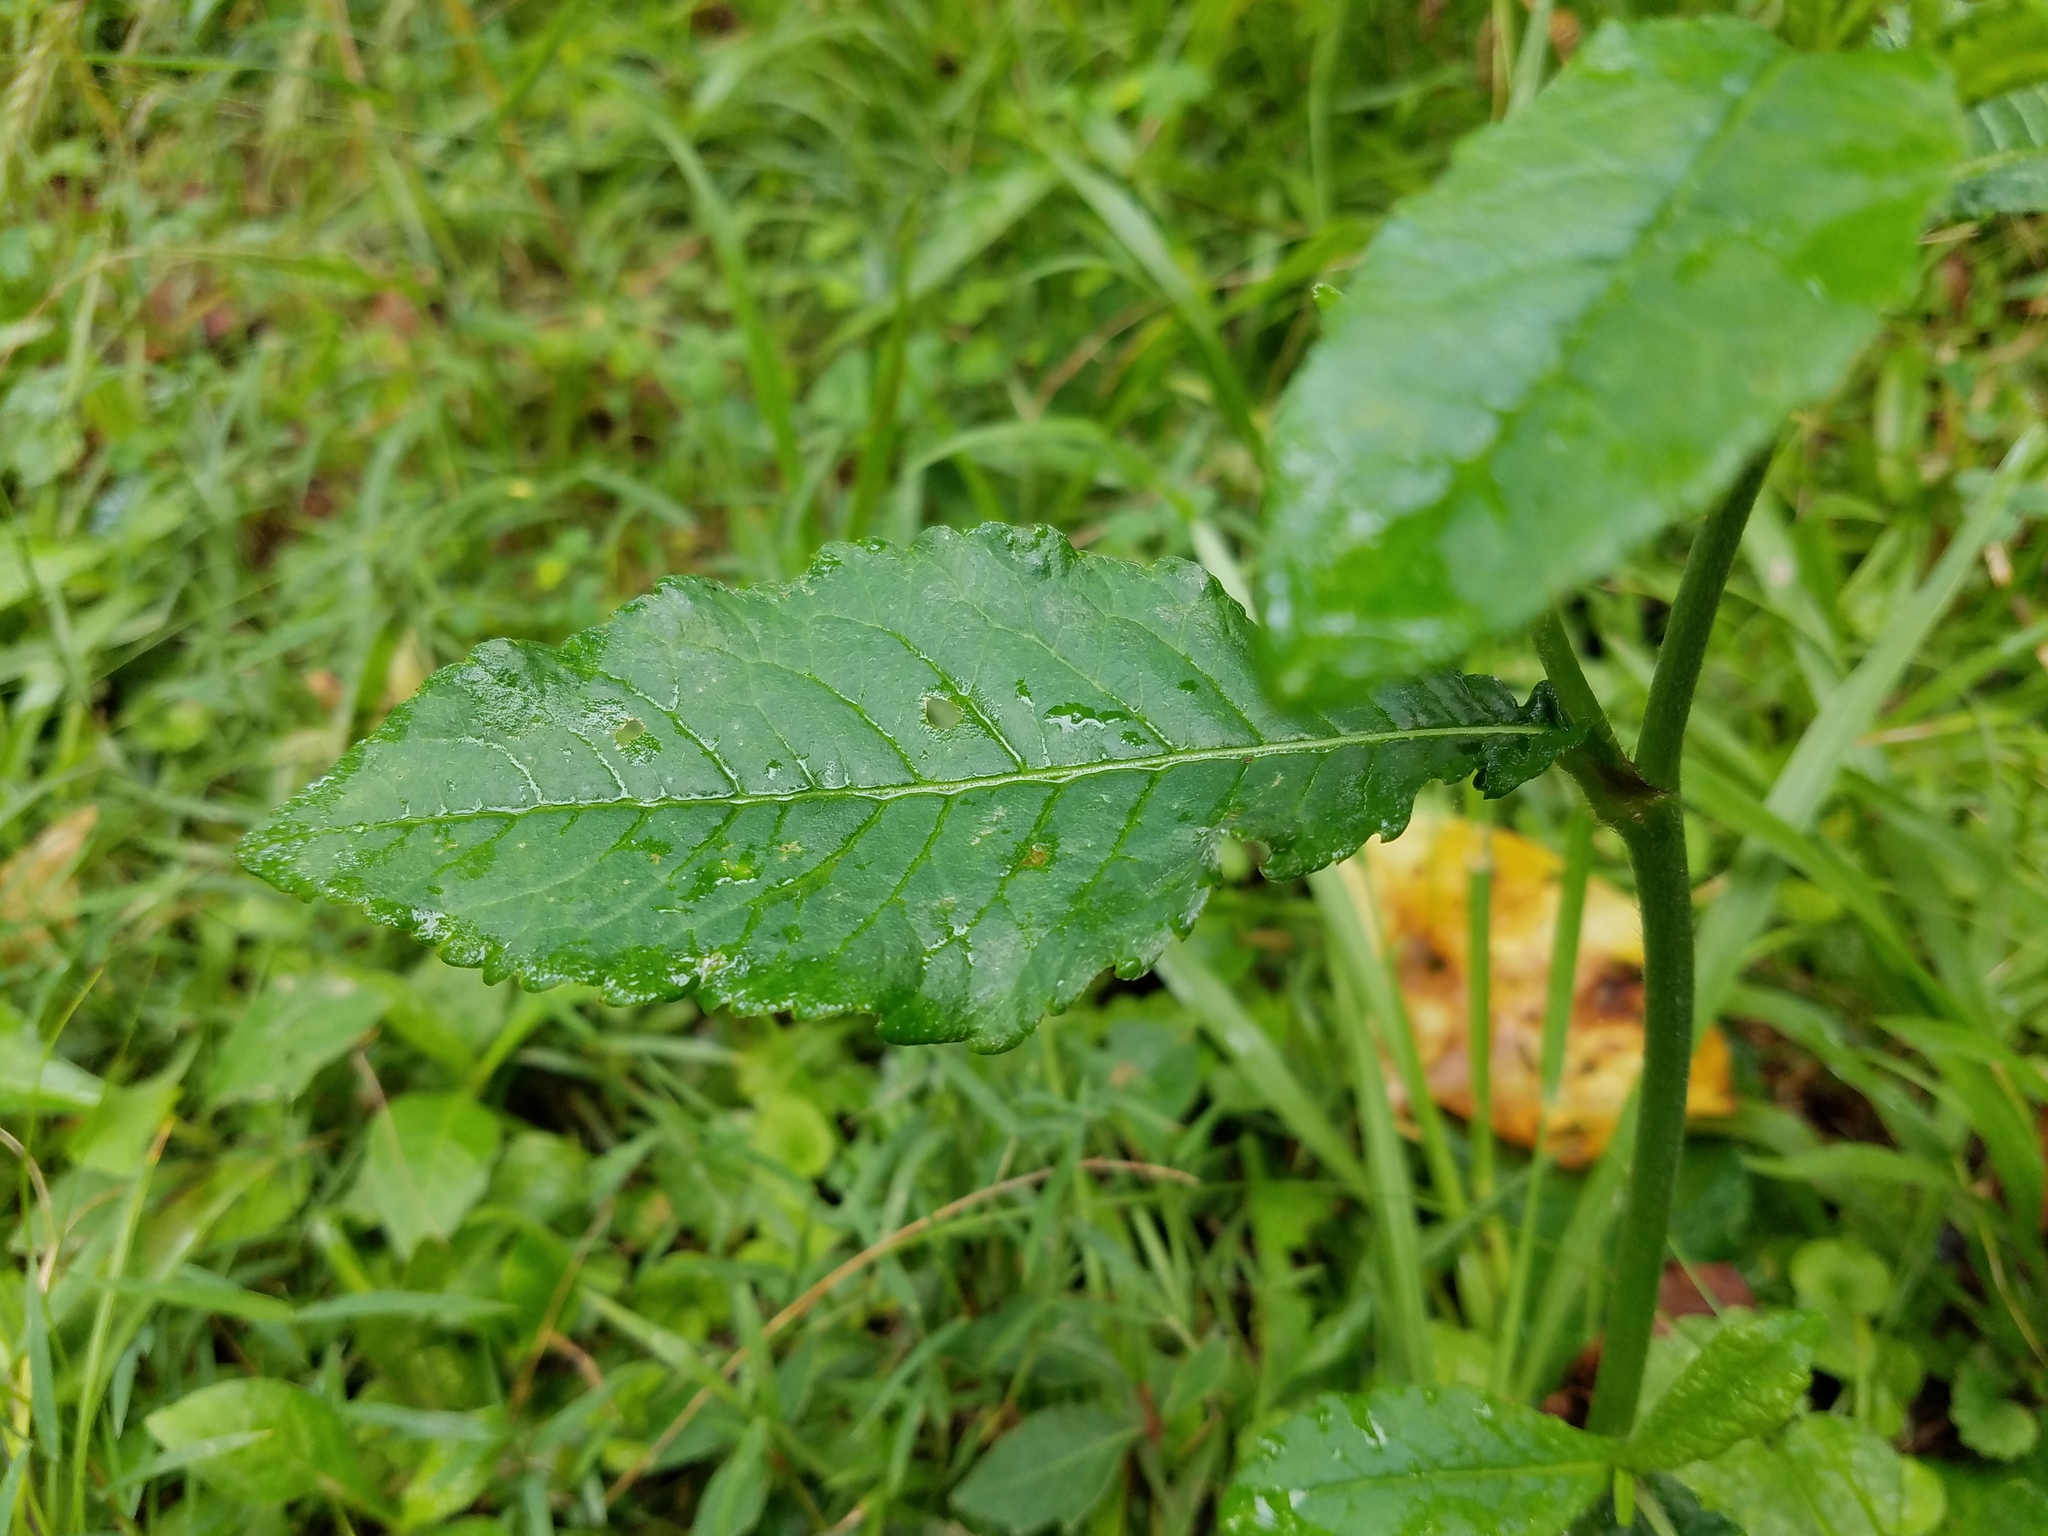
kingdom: Plantae
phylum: Tracheophyta
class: Magnoliopsida
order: Asterales
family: Asteraceae
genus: Elephantopus
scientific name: Elephantopus carolinianus
